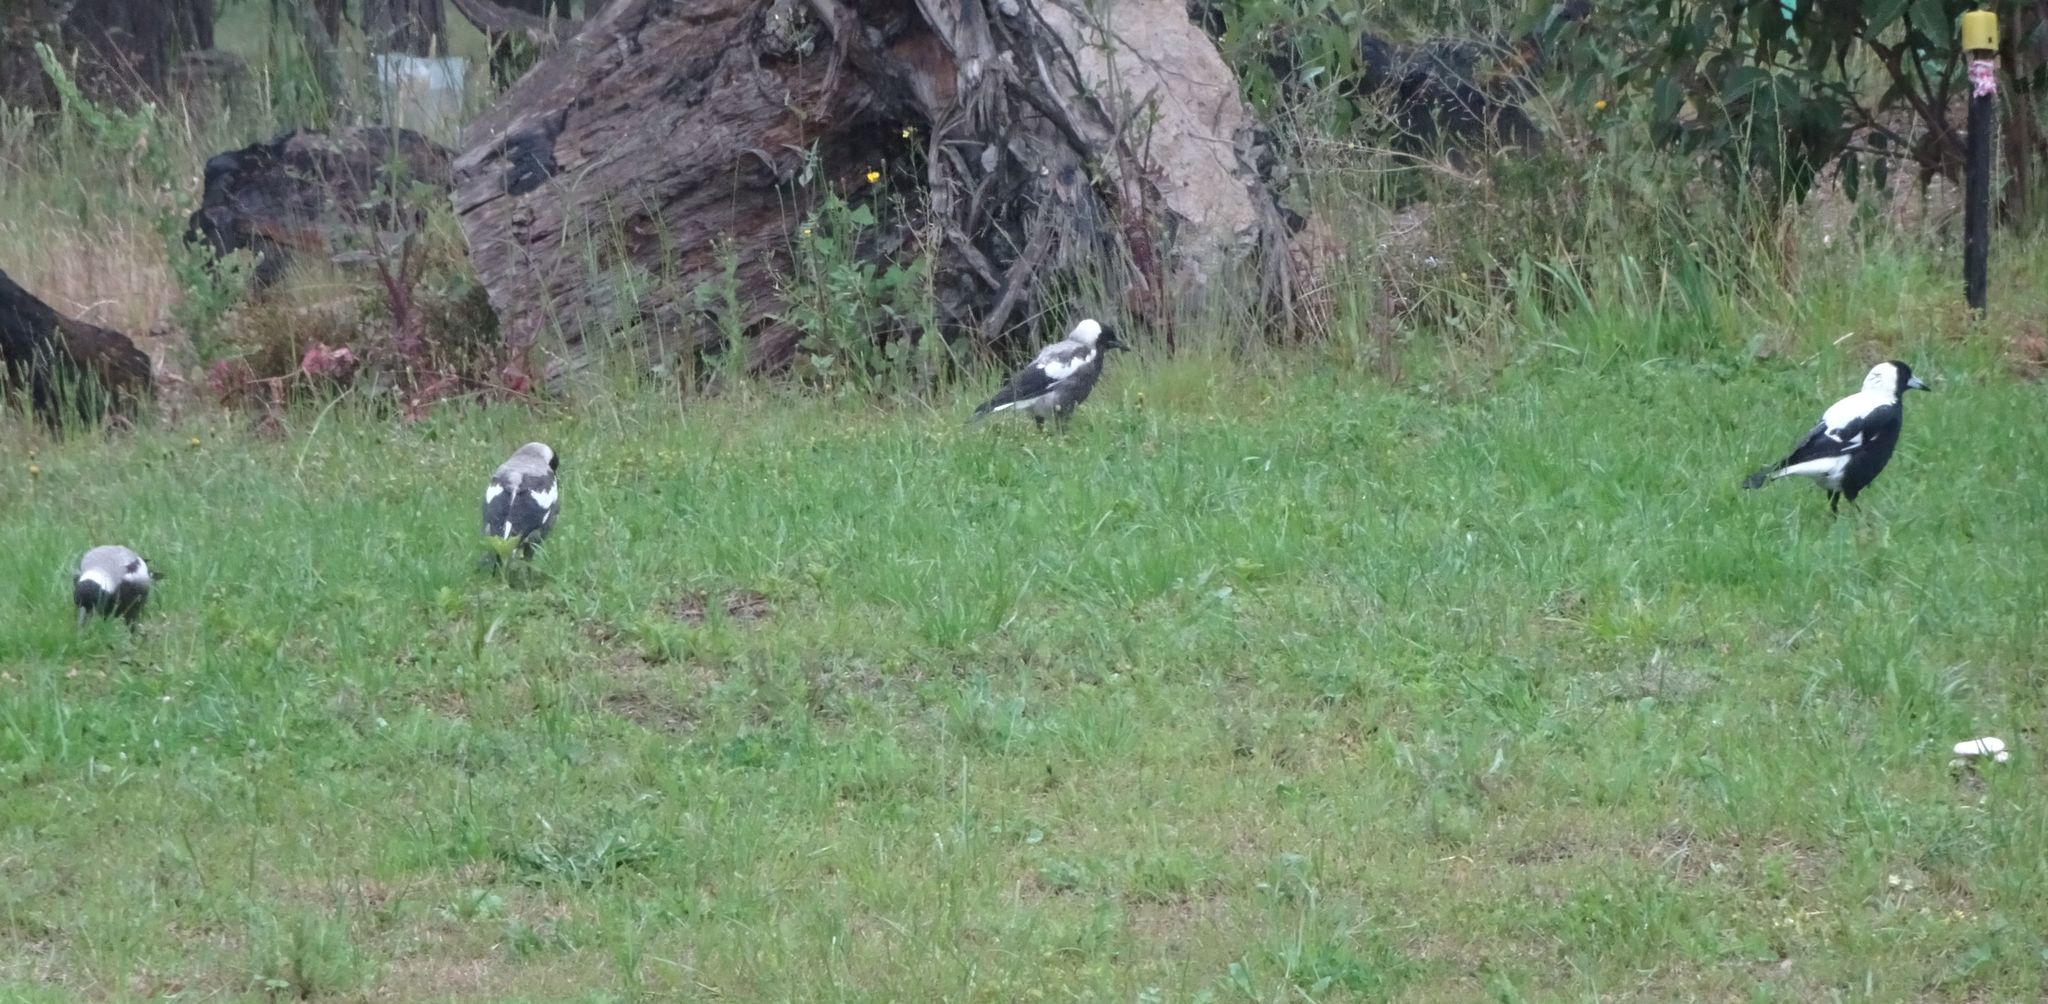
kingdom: Animalia
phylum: Chordata
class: Aves
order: Passeriformes
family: Cracticidae
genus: Gymnorhina
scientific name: Gymnorhina tibicen
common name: Australian magpie
